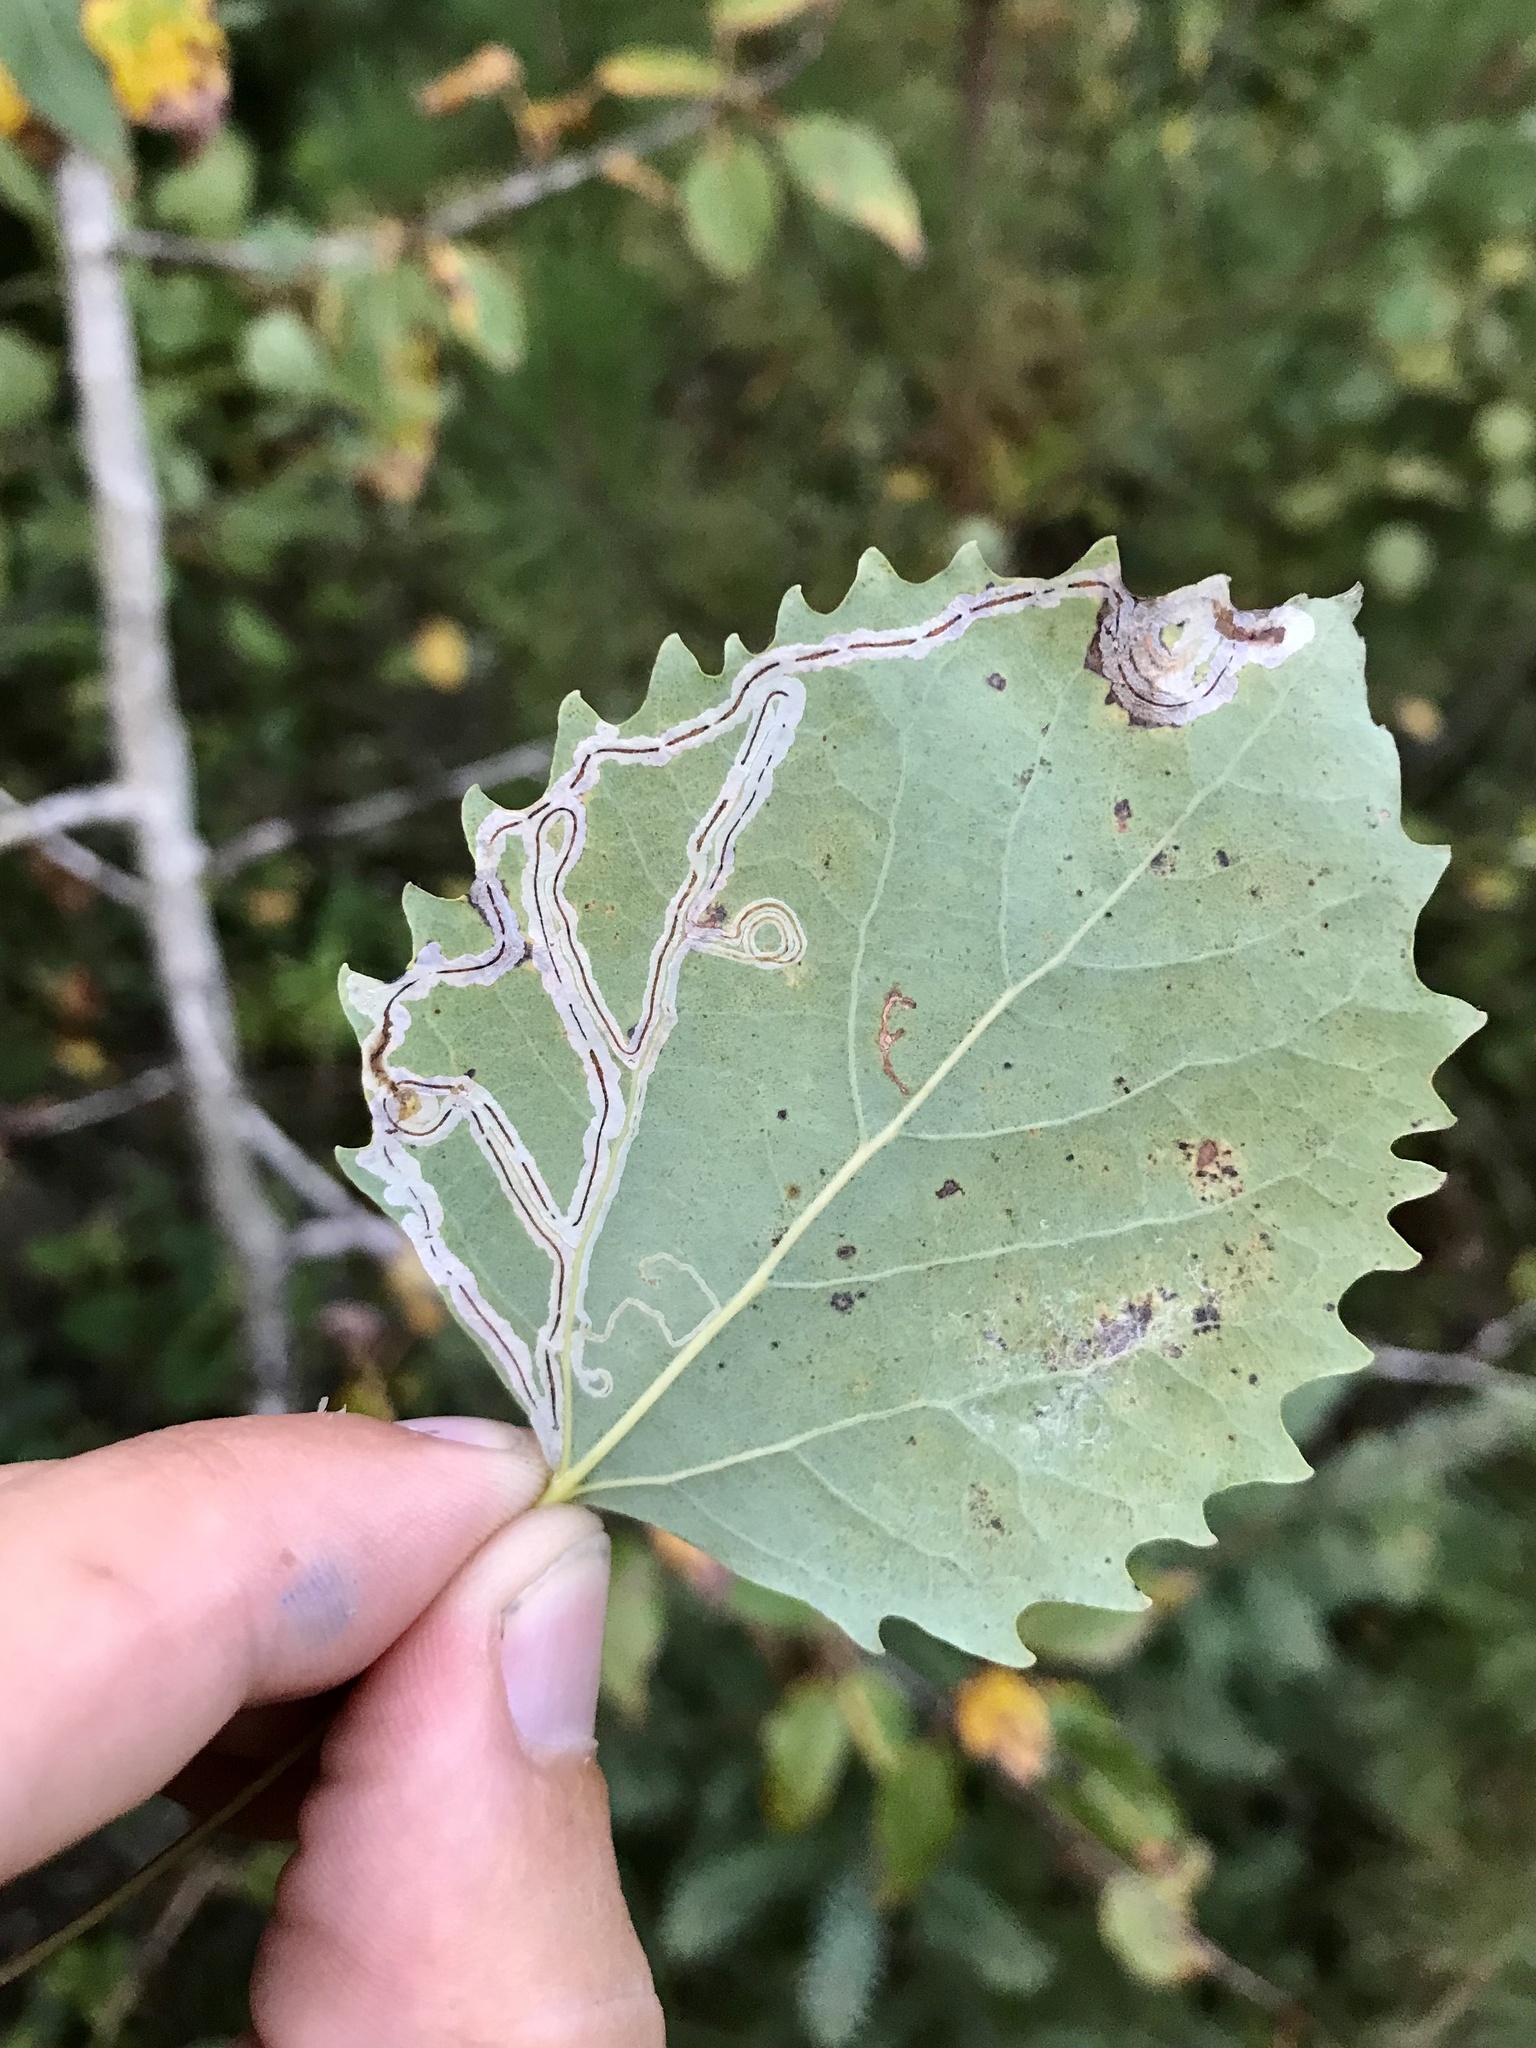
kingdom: Animalia
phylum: Arthropoda
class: Insecta
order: Lepidoptera
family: Gracillariidae
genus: Phyllocnistis
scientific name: Phyllocnistis populiella
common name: Aspen serpentine leafminer moth
